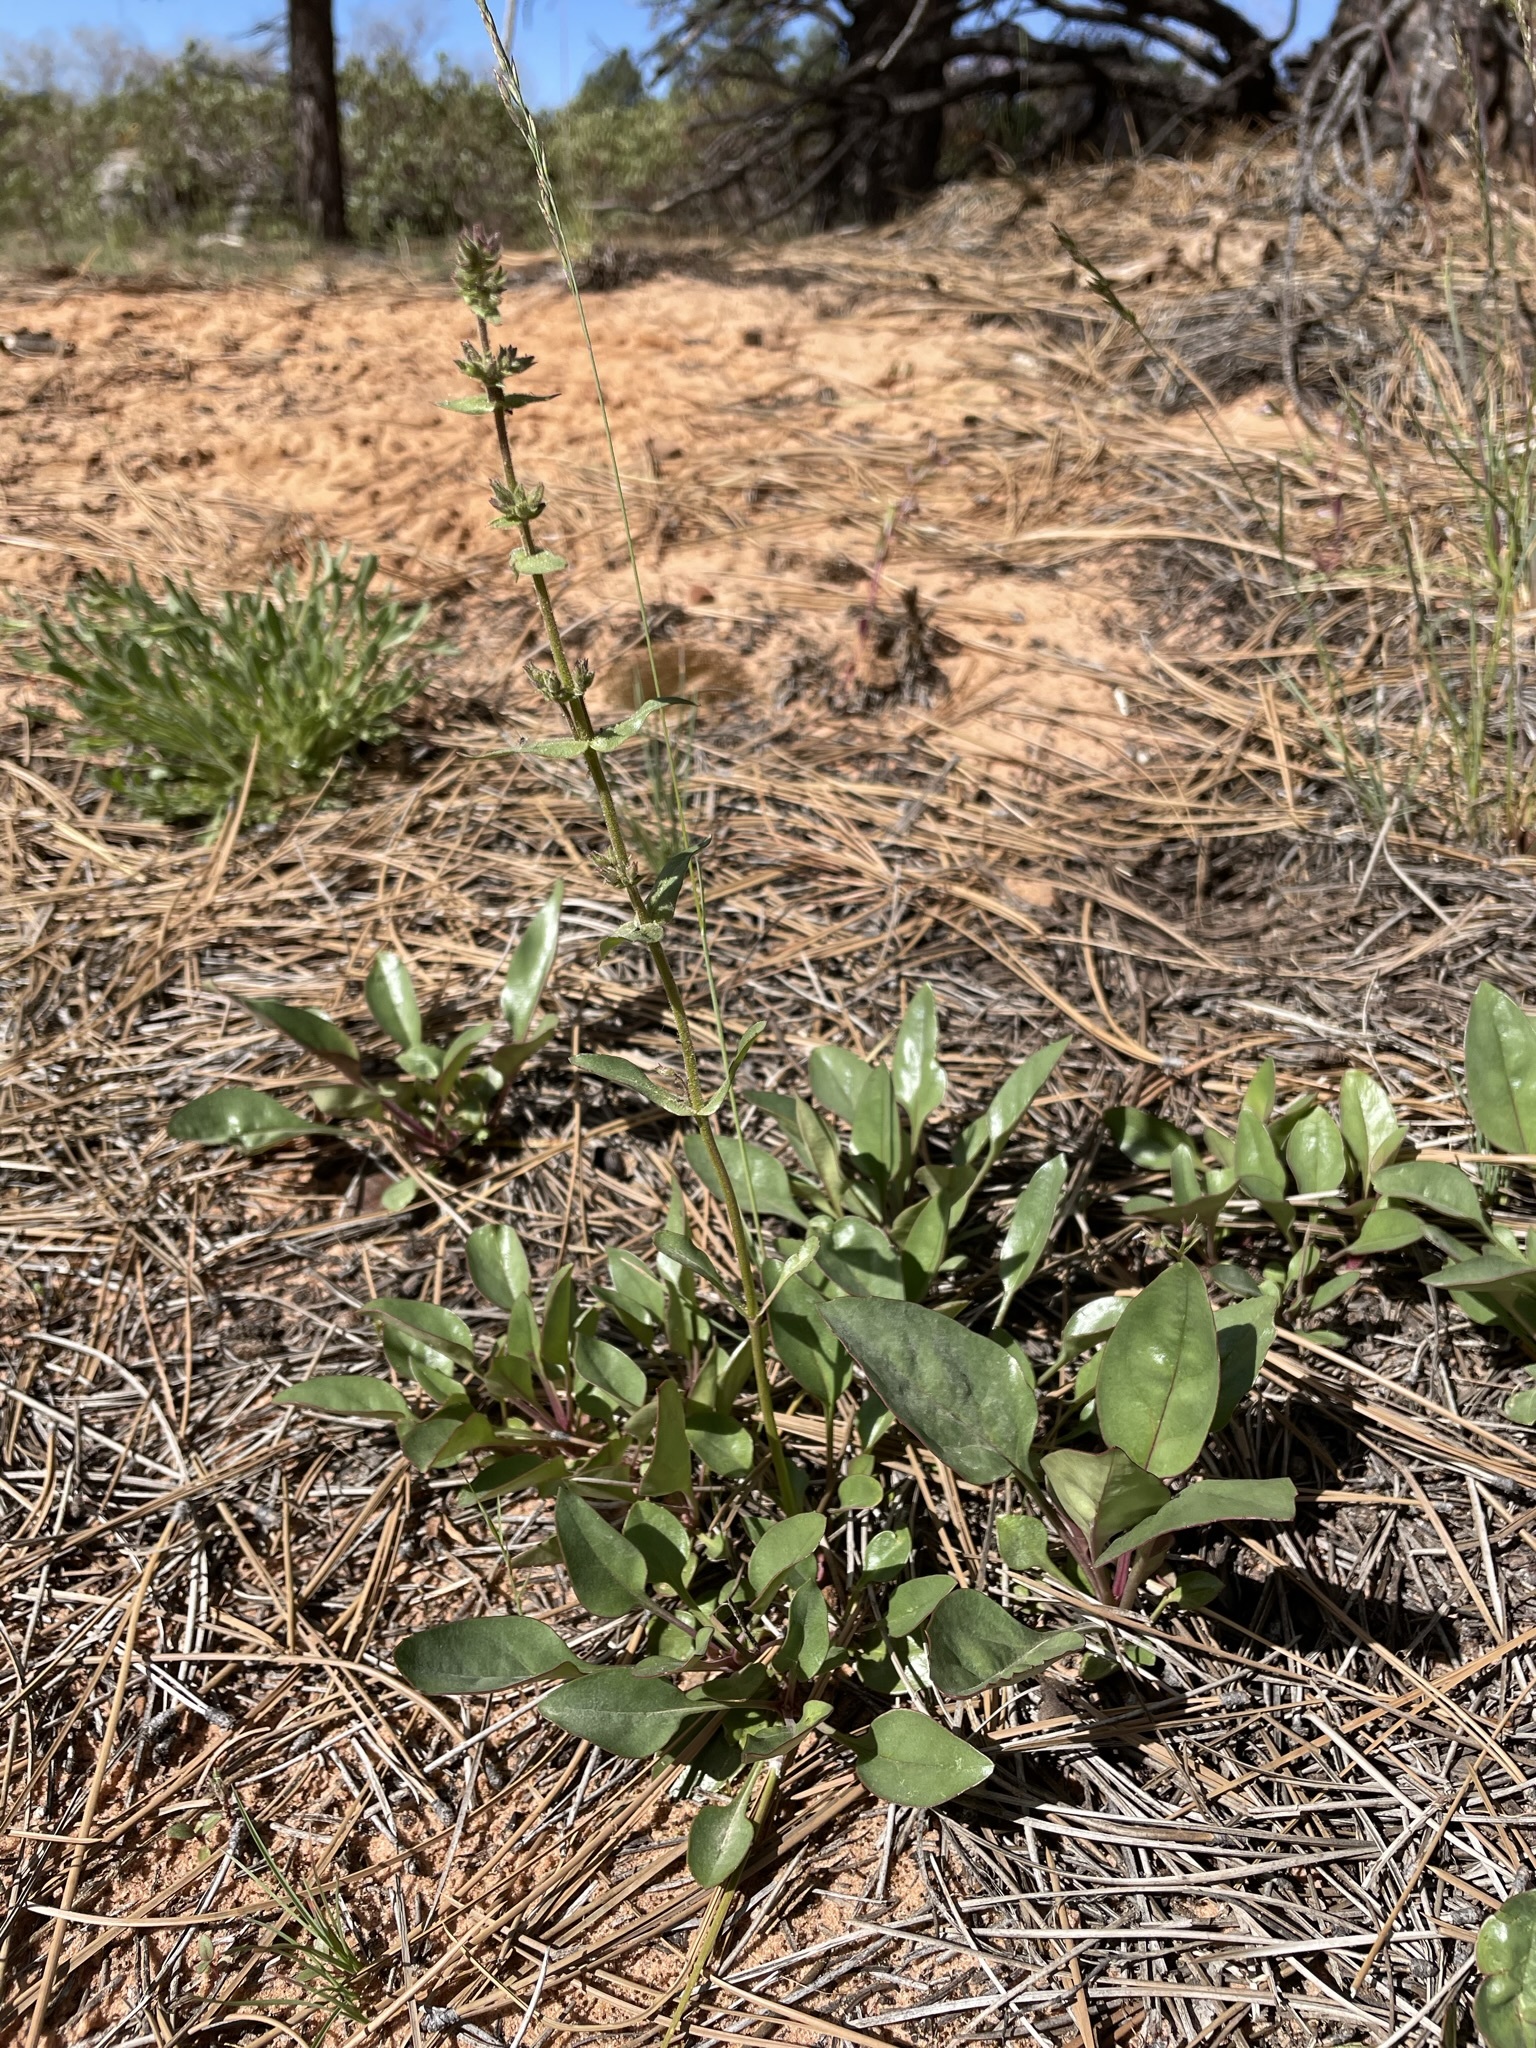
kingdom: Plantae
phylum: Tracheophyta
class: Magnoliopsida
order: Lamiales
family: Plantaginaceae
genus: Penstemon
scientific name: Penstemon humilis
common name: Low penstemon
